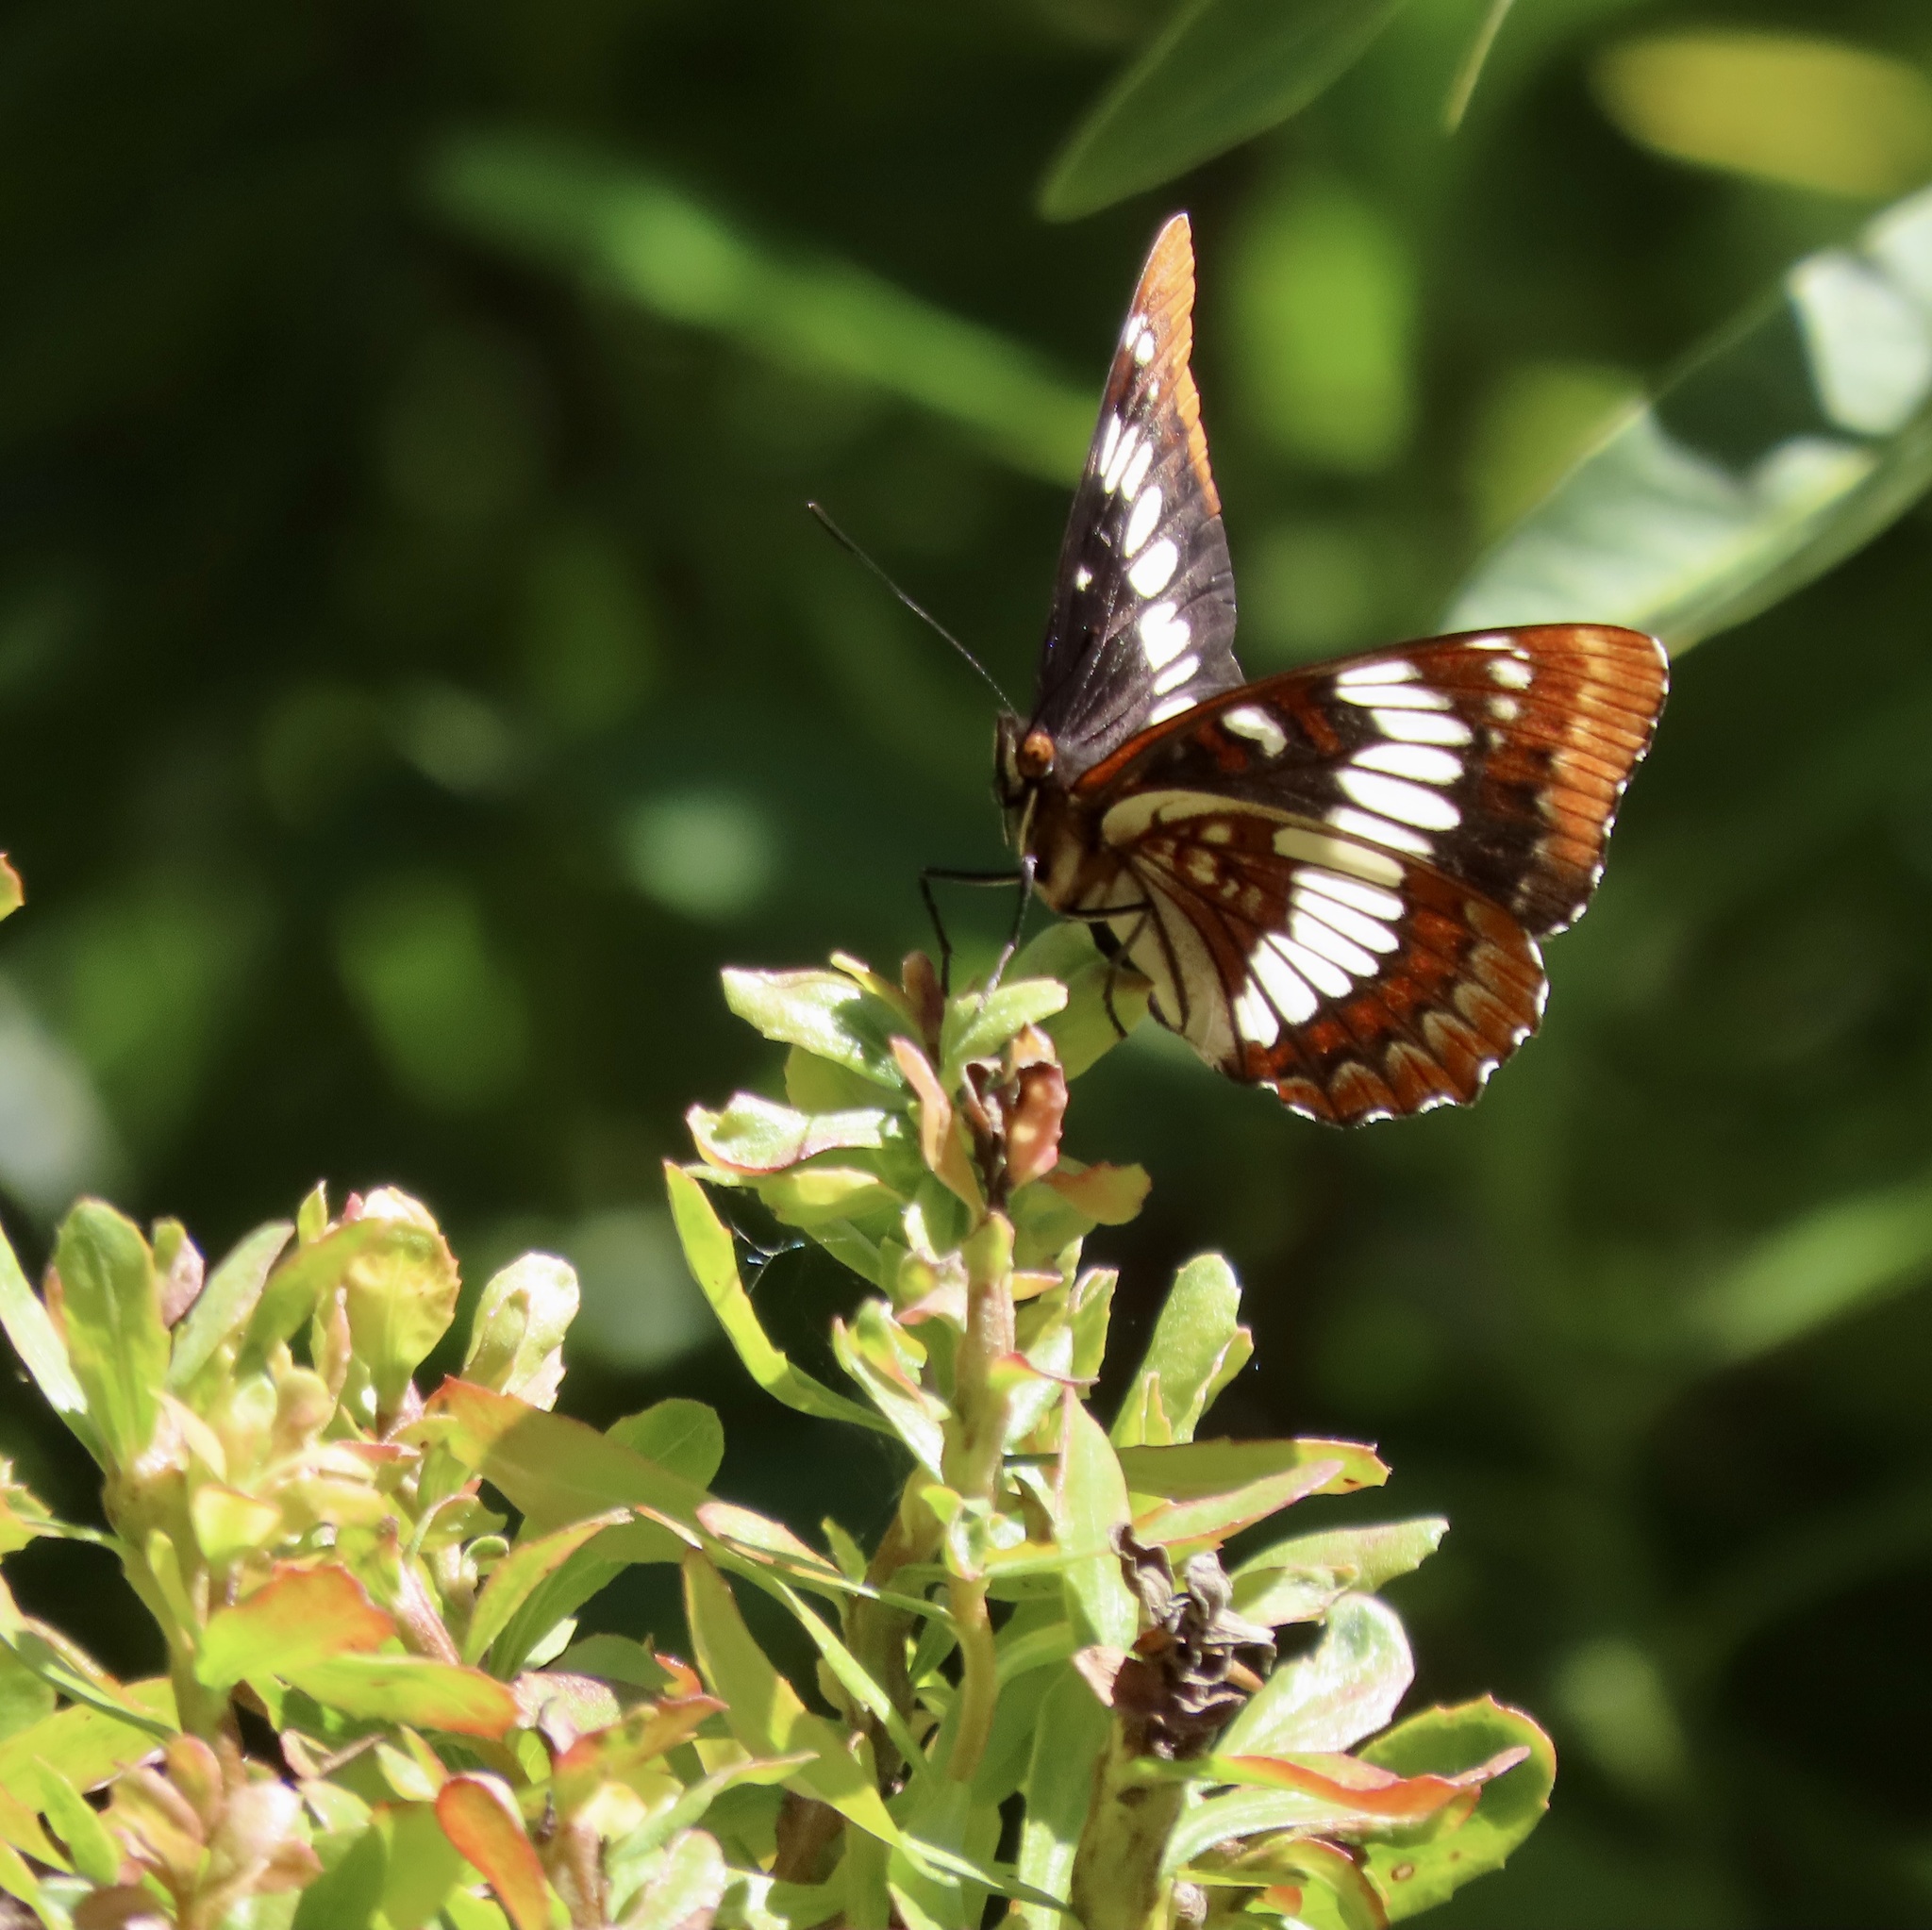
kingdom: Animalia
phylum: Arthropoda
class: Insecta
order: Lepidoptera
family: Nymphalidae
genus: Limenitis
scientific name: Limenitis lorquini
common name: Lorquin's admiral
